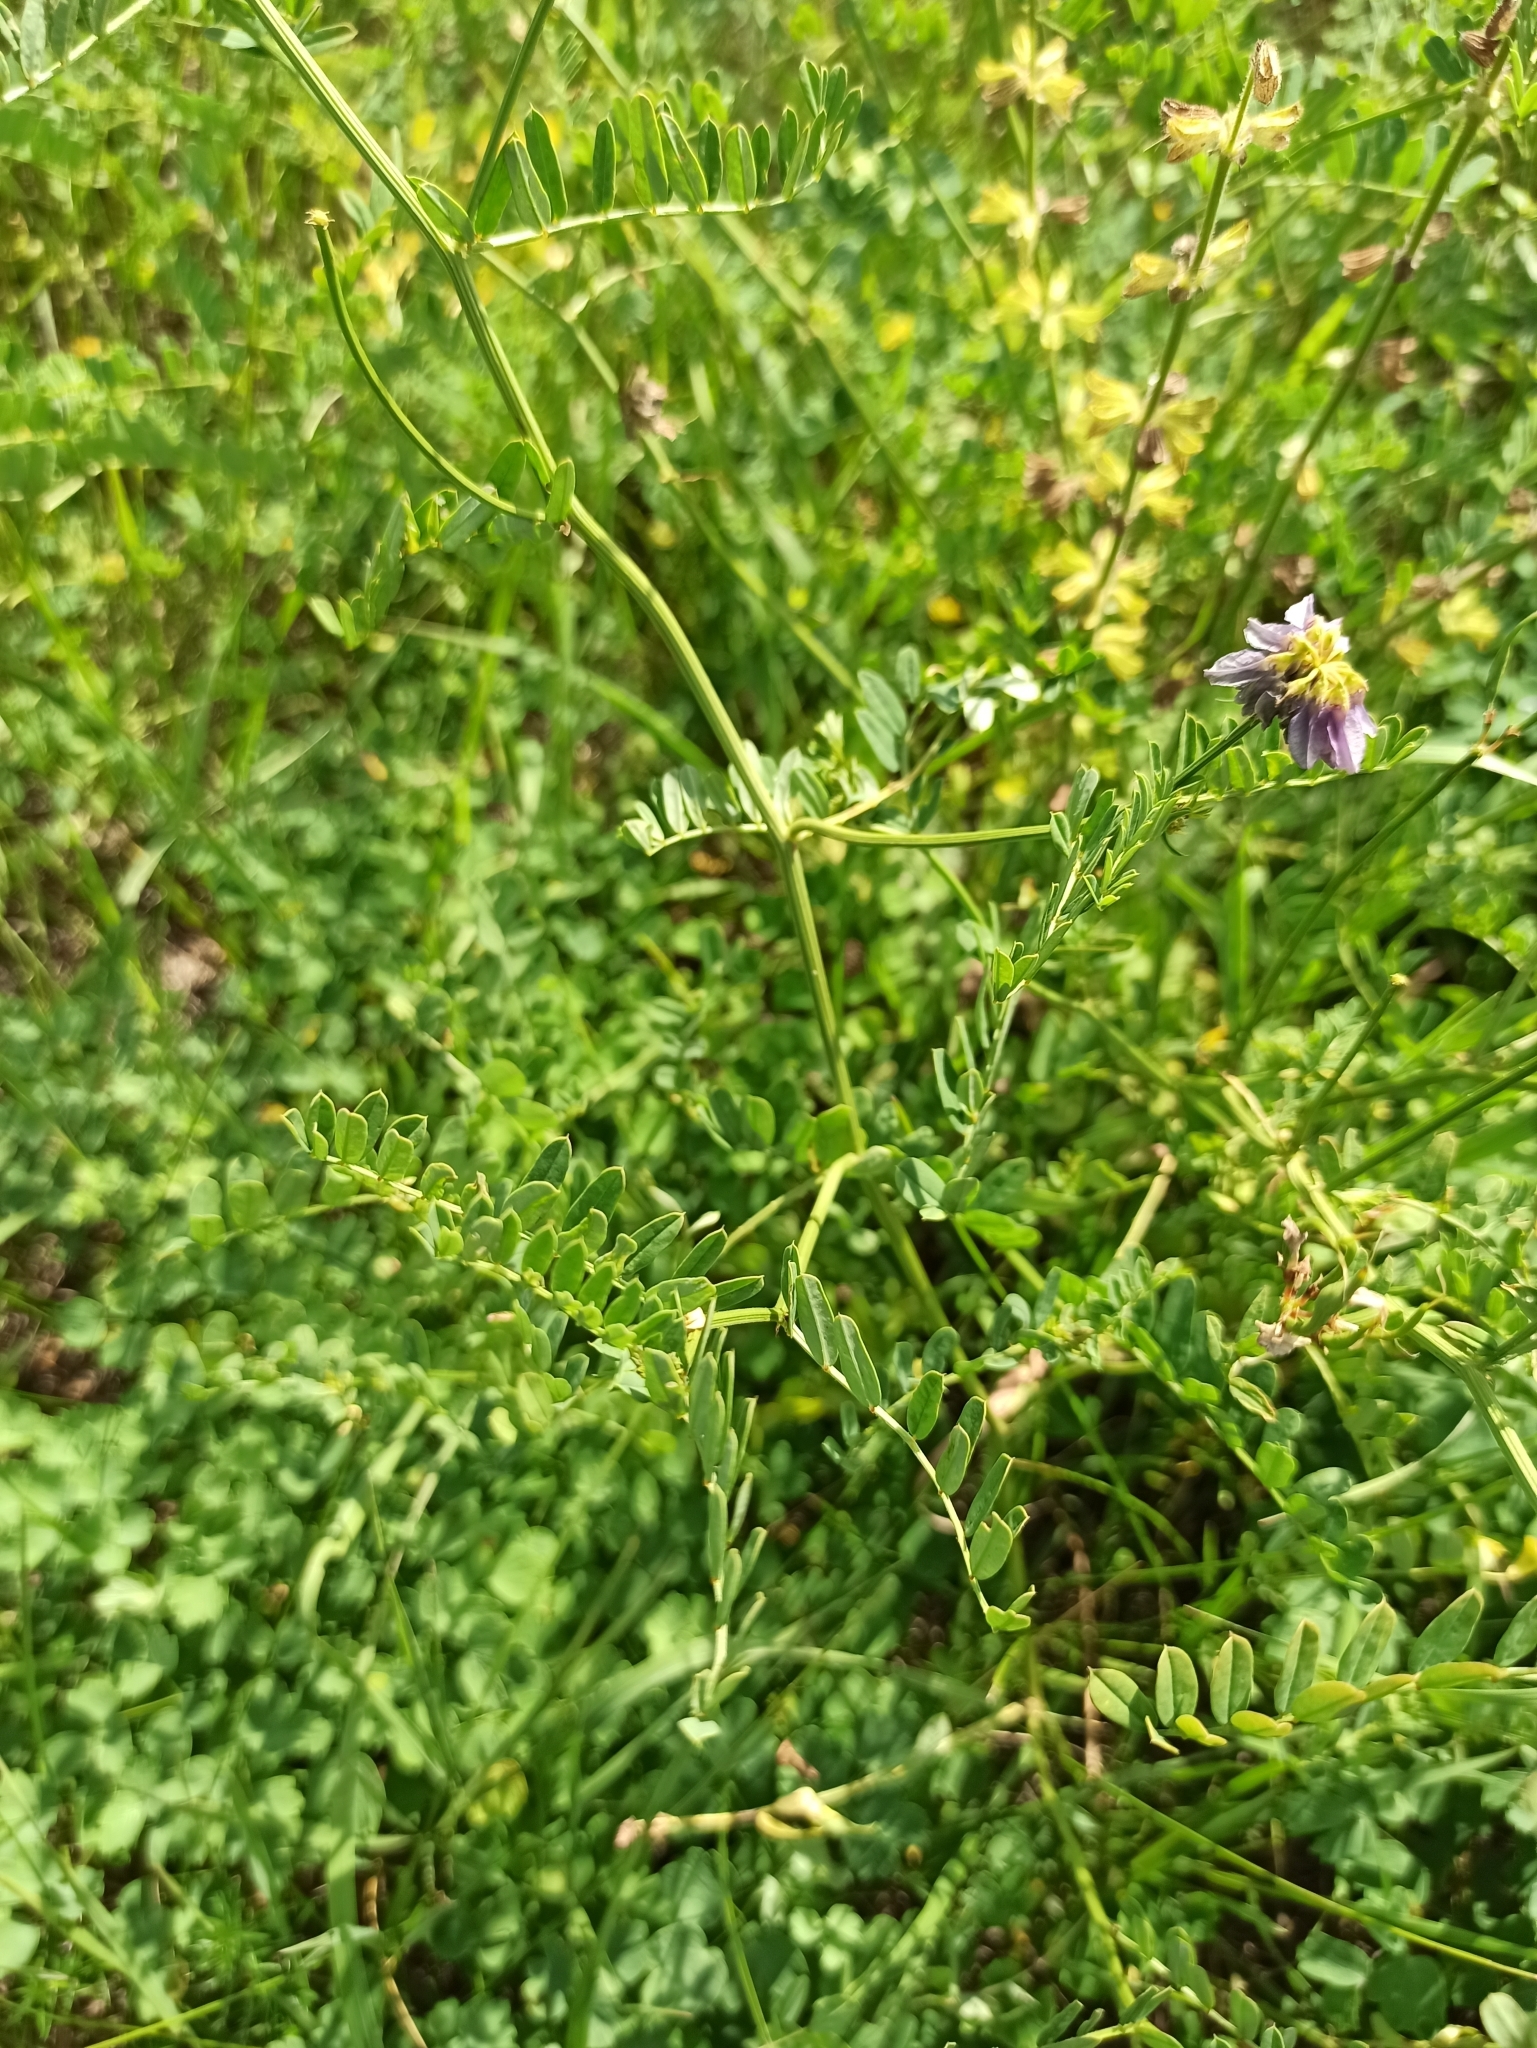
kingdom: Plantae
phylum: Tracheophyta
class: Magnoliopsida
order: Fabales
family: Fabaceae
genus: Coronilla
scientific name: Coronilla varia
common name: Crownvetch
